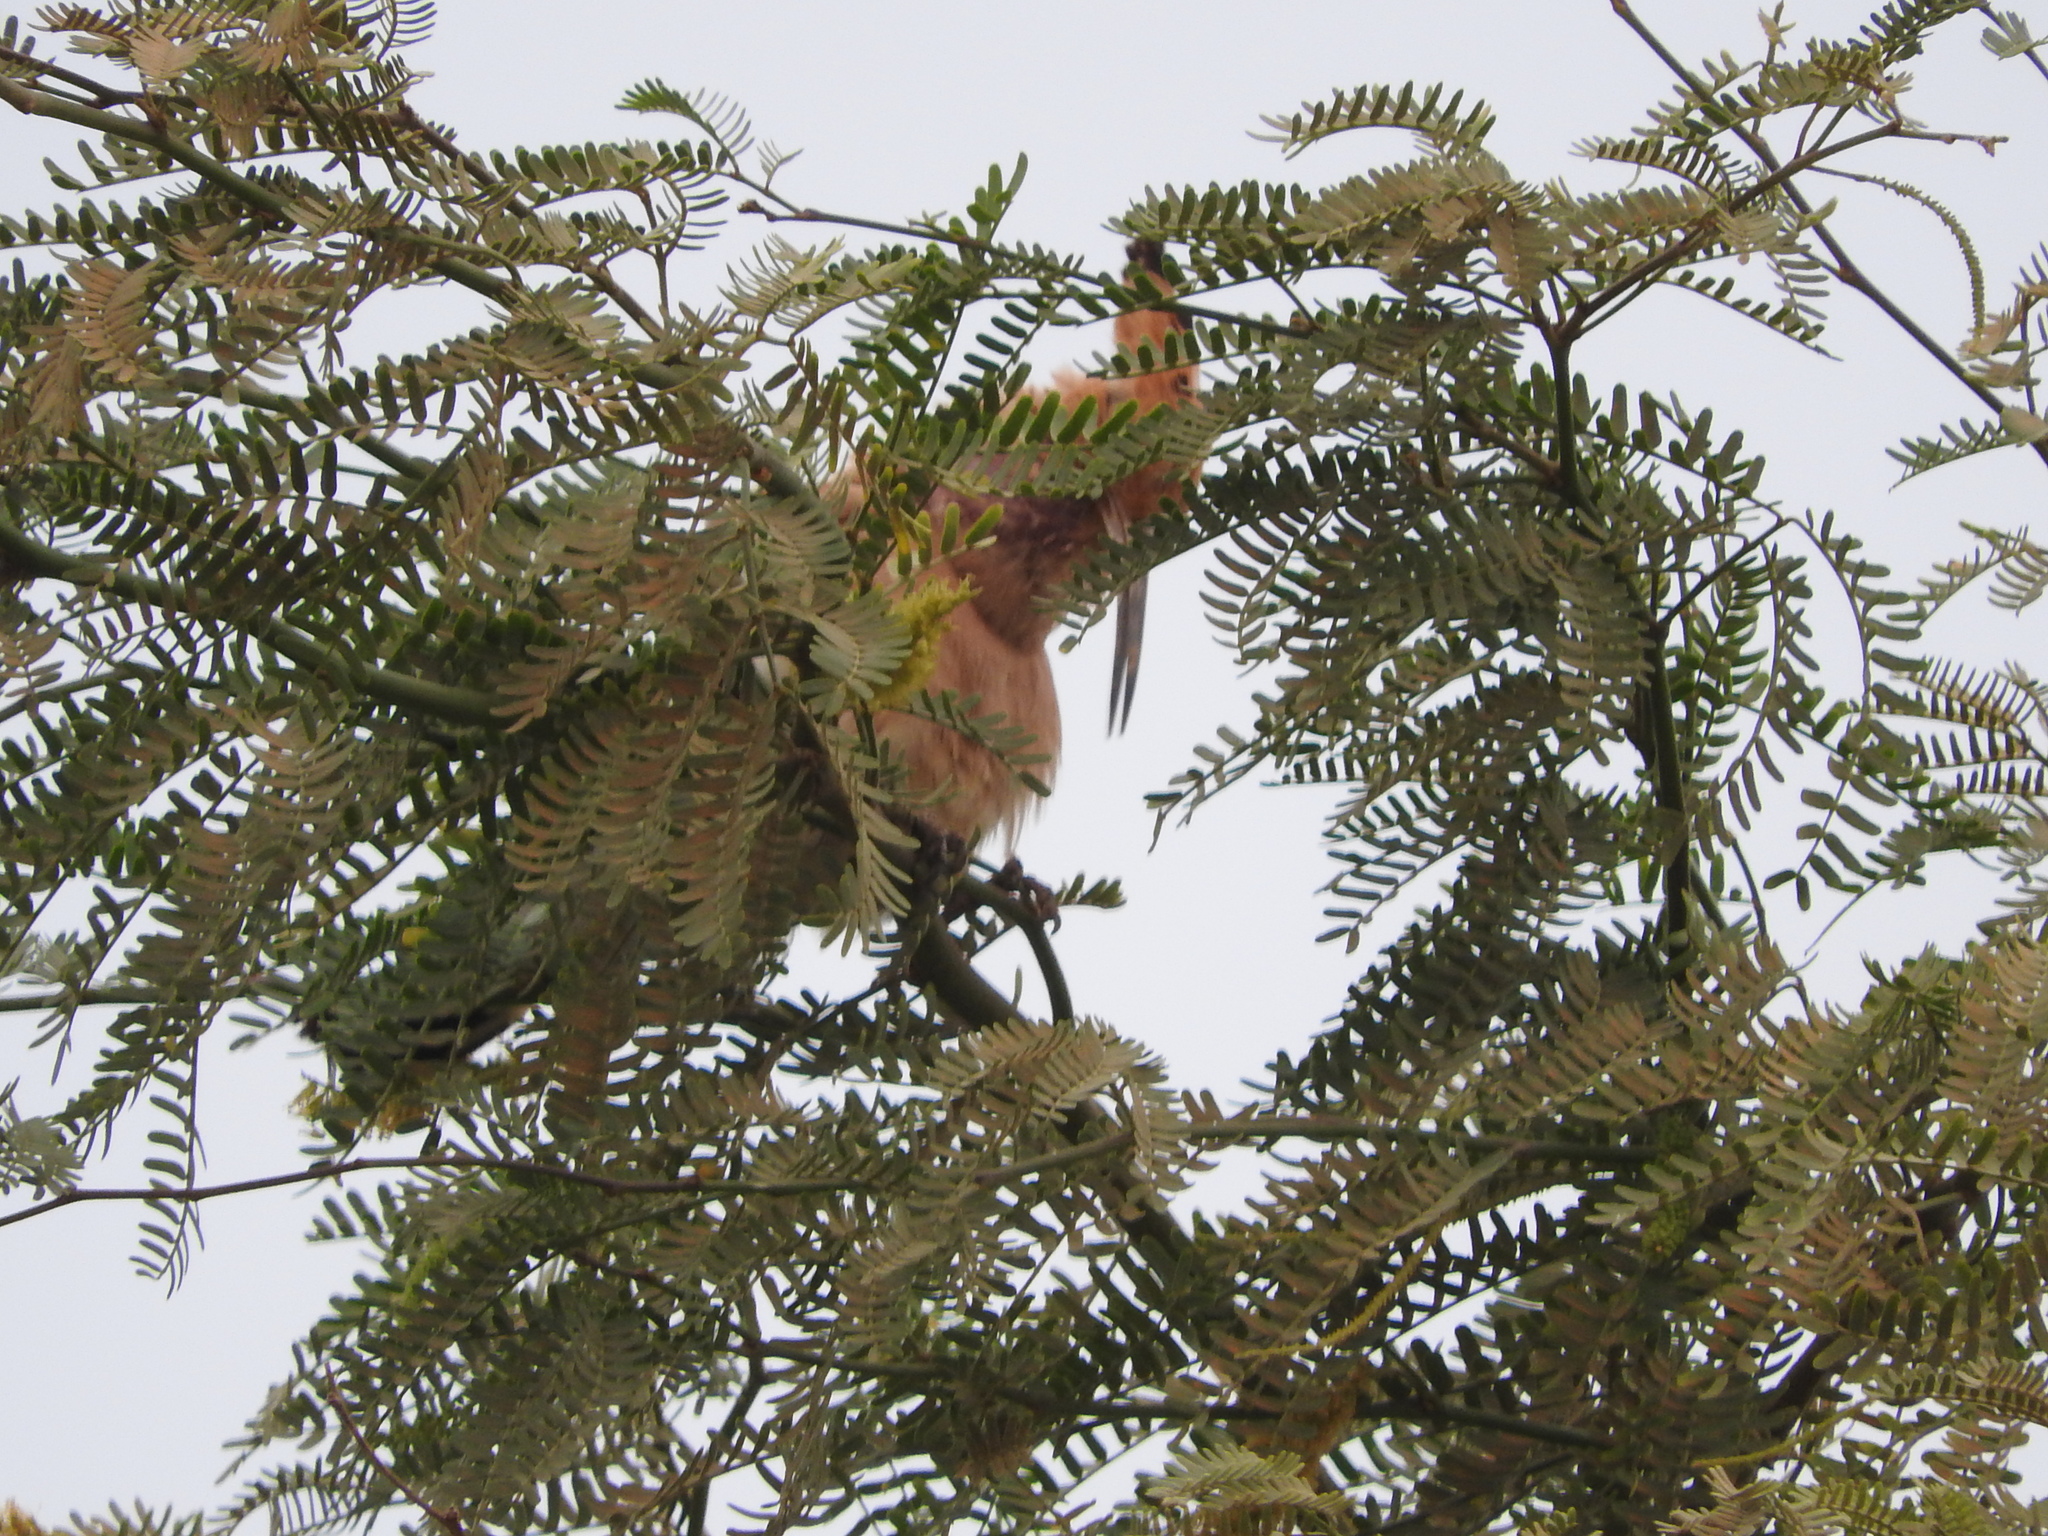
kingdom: Animalia
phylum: Chordata
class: Aves
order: Bucerotiformes
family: Upupidae
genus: Upupa
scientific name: Upupa epops
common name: Eurasian hoopoe
